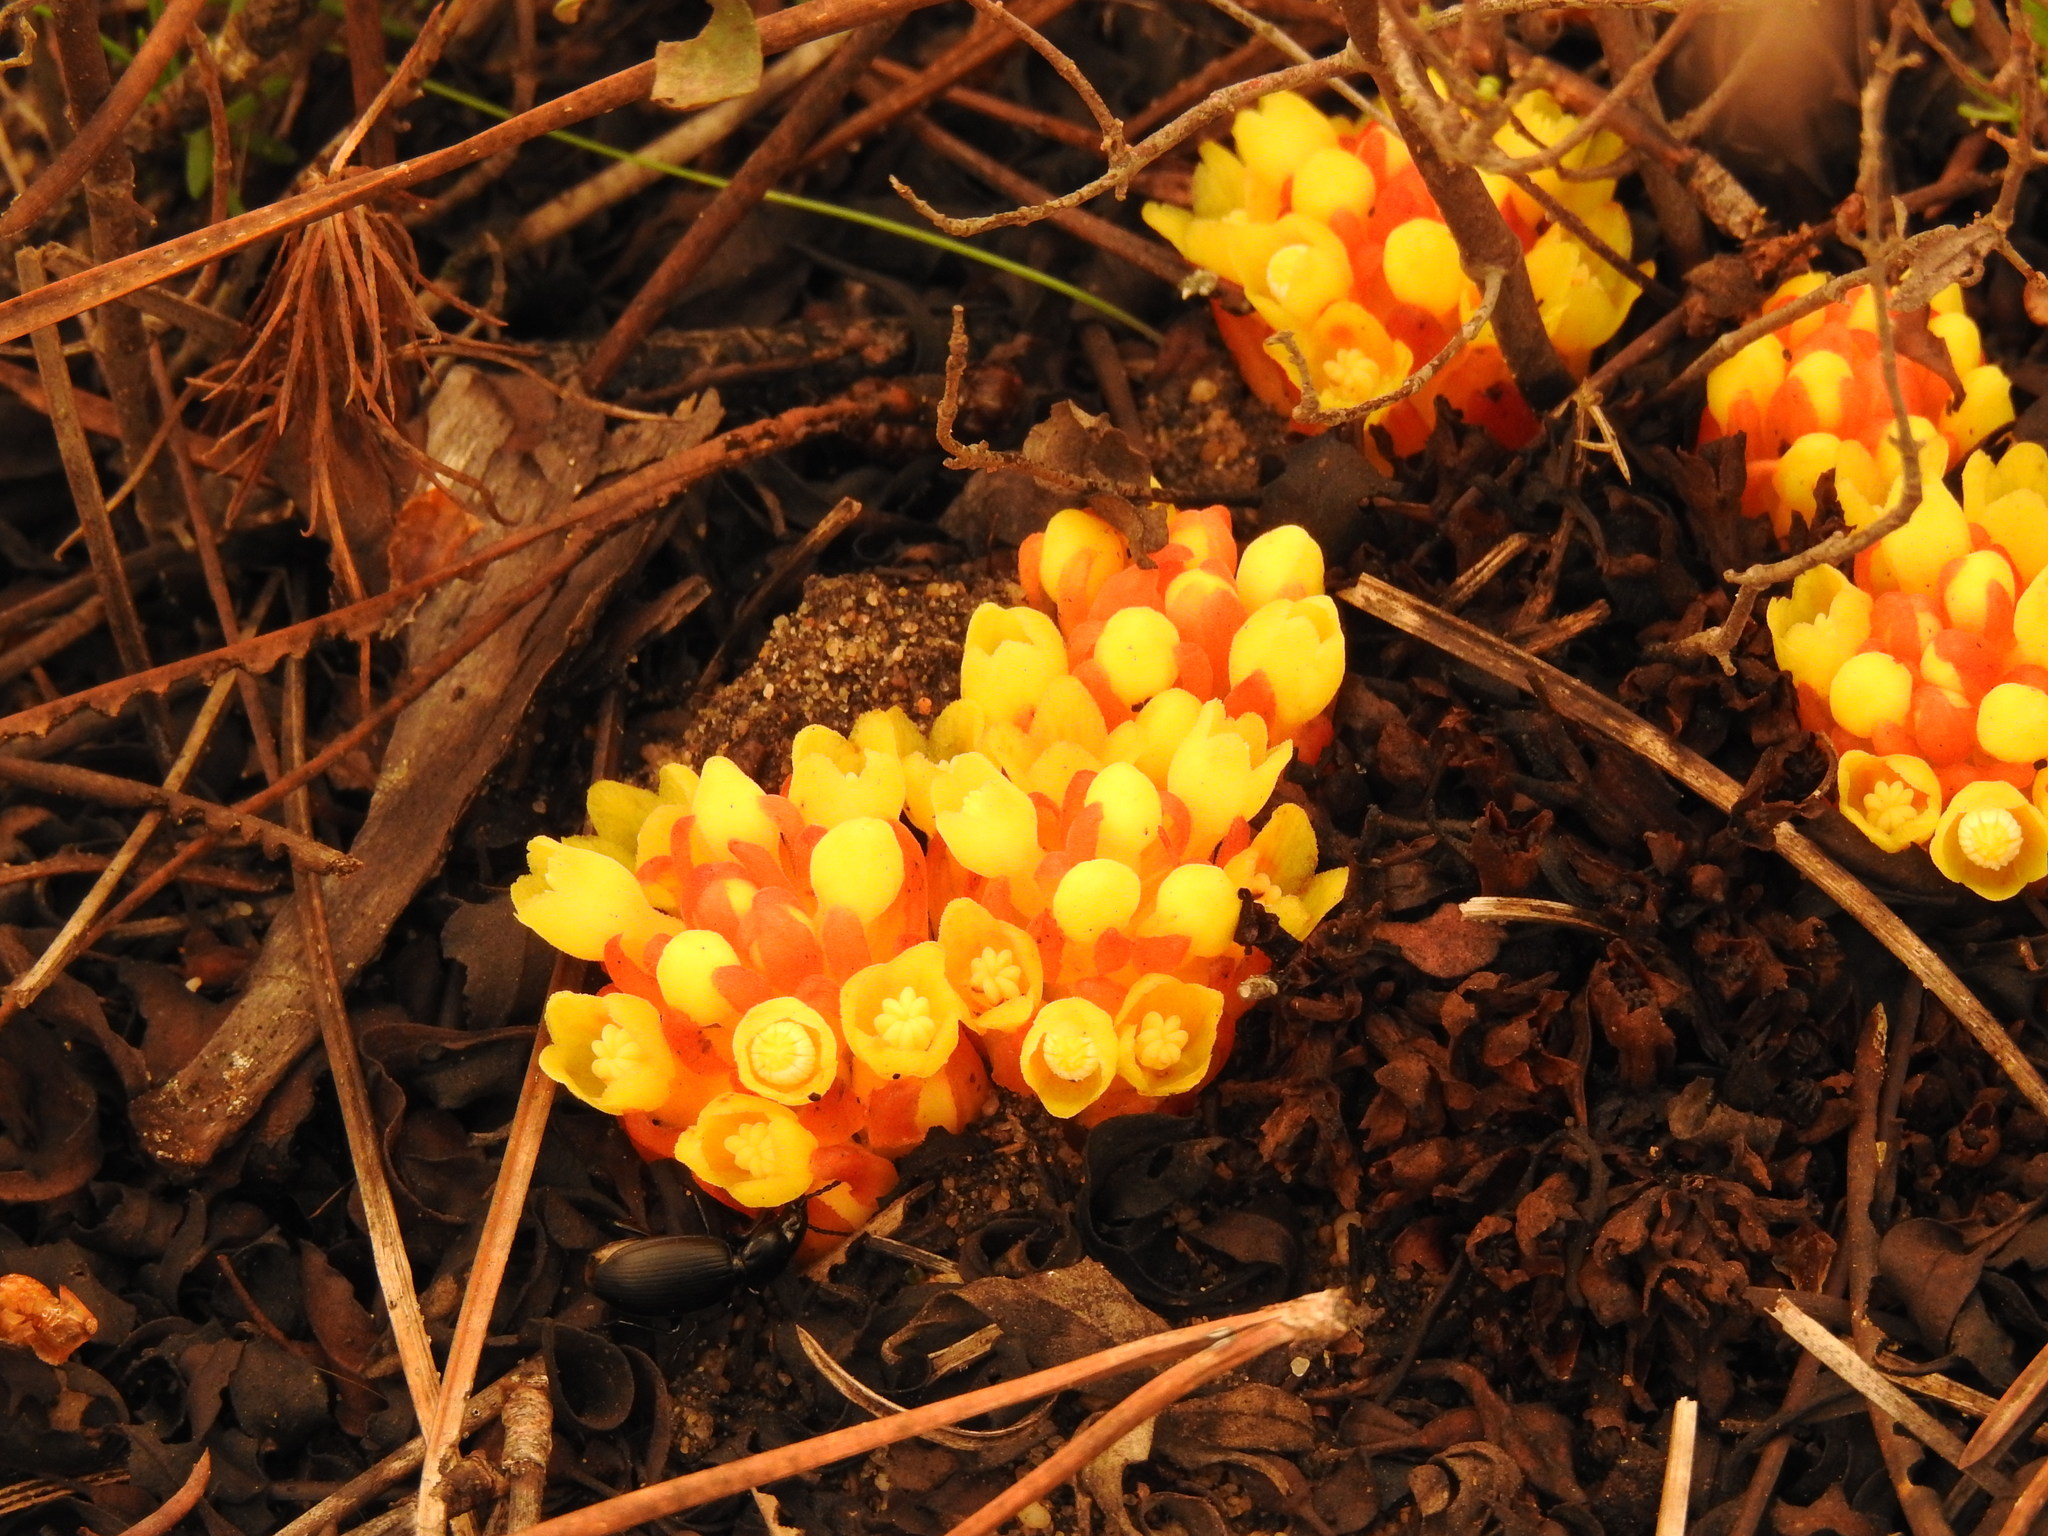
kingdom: Plantae
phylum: Tracheophyta
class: Magnoliopsida
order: Malvales
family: Cytinaceae
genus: Cytinus
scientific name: Cytinus hypocistis
